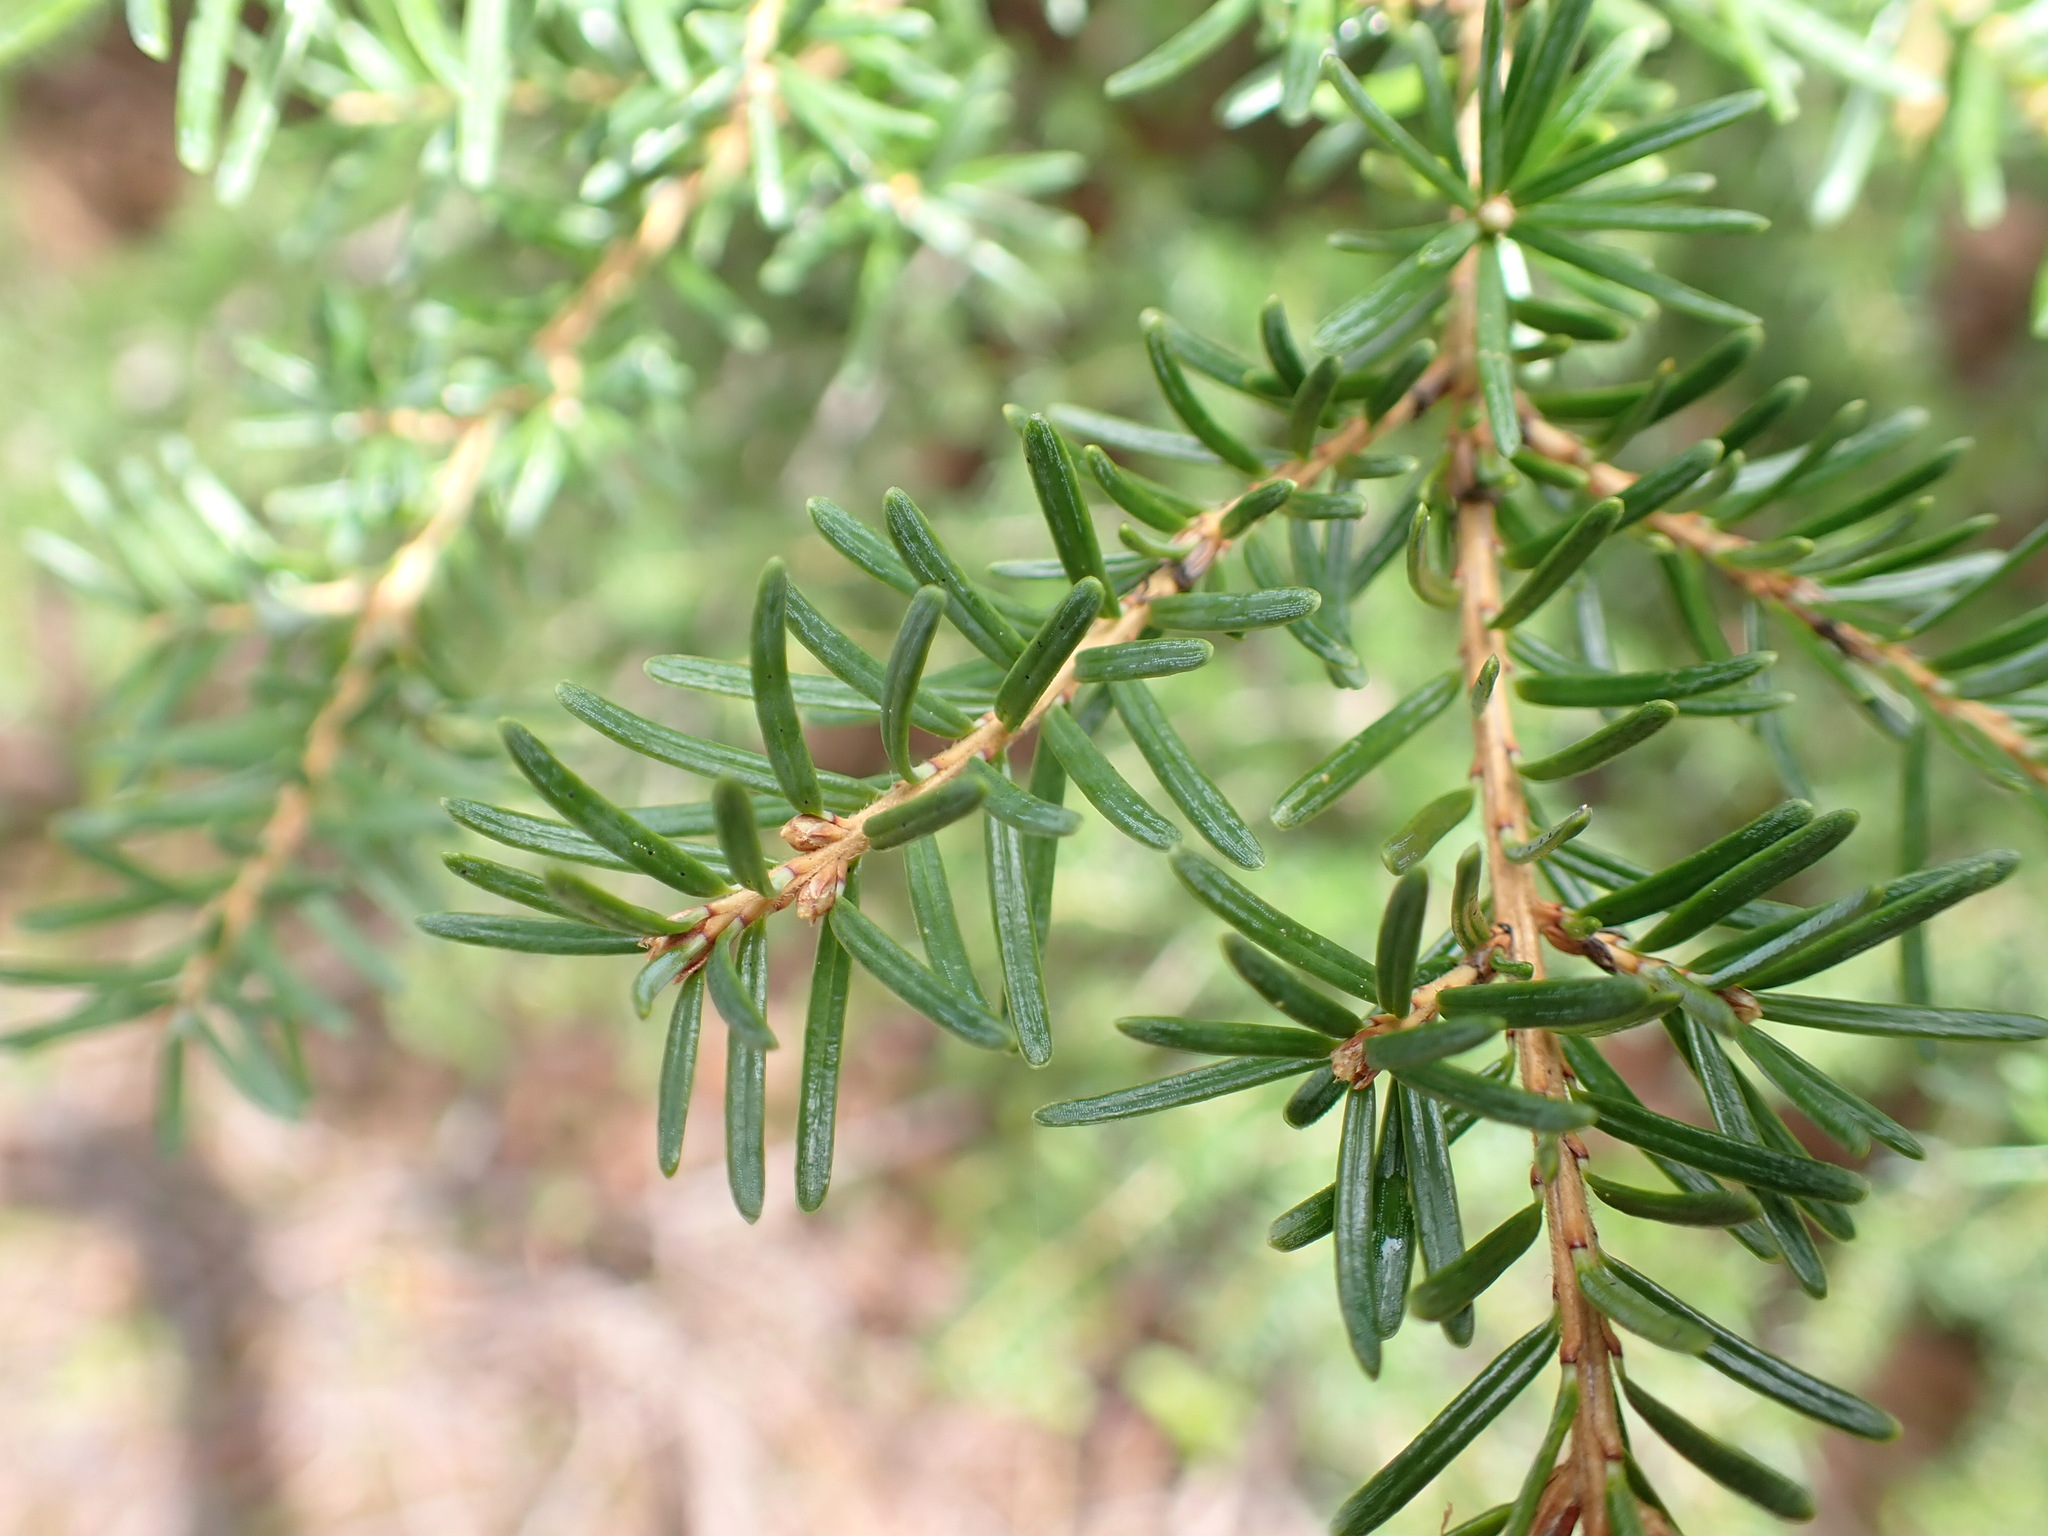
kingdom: Plantae
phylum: Tracheophyta
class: Pinopsida
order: Pinales
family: Pinaceae
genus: Tsuga
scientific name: Tsuga mertensiana
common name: Mountain hemlock
